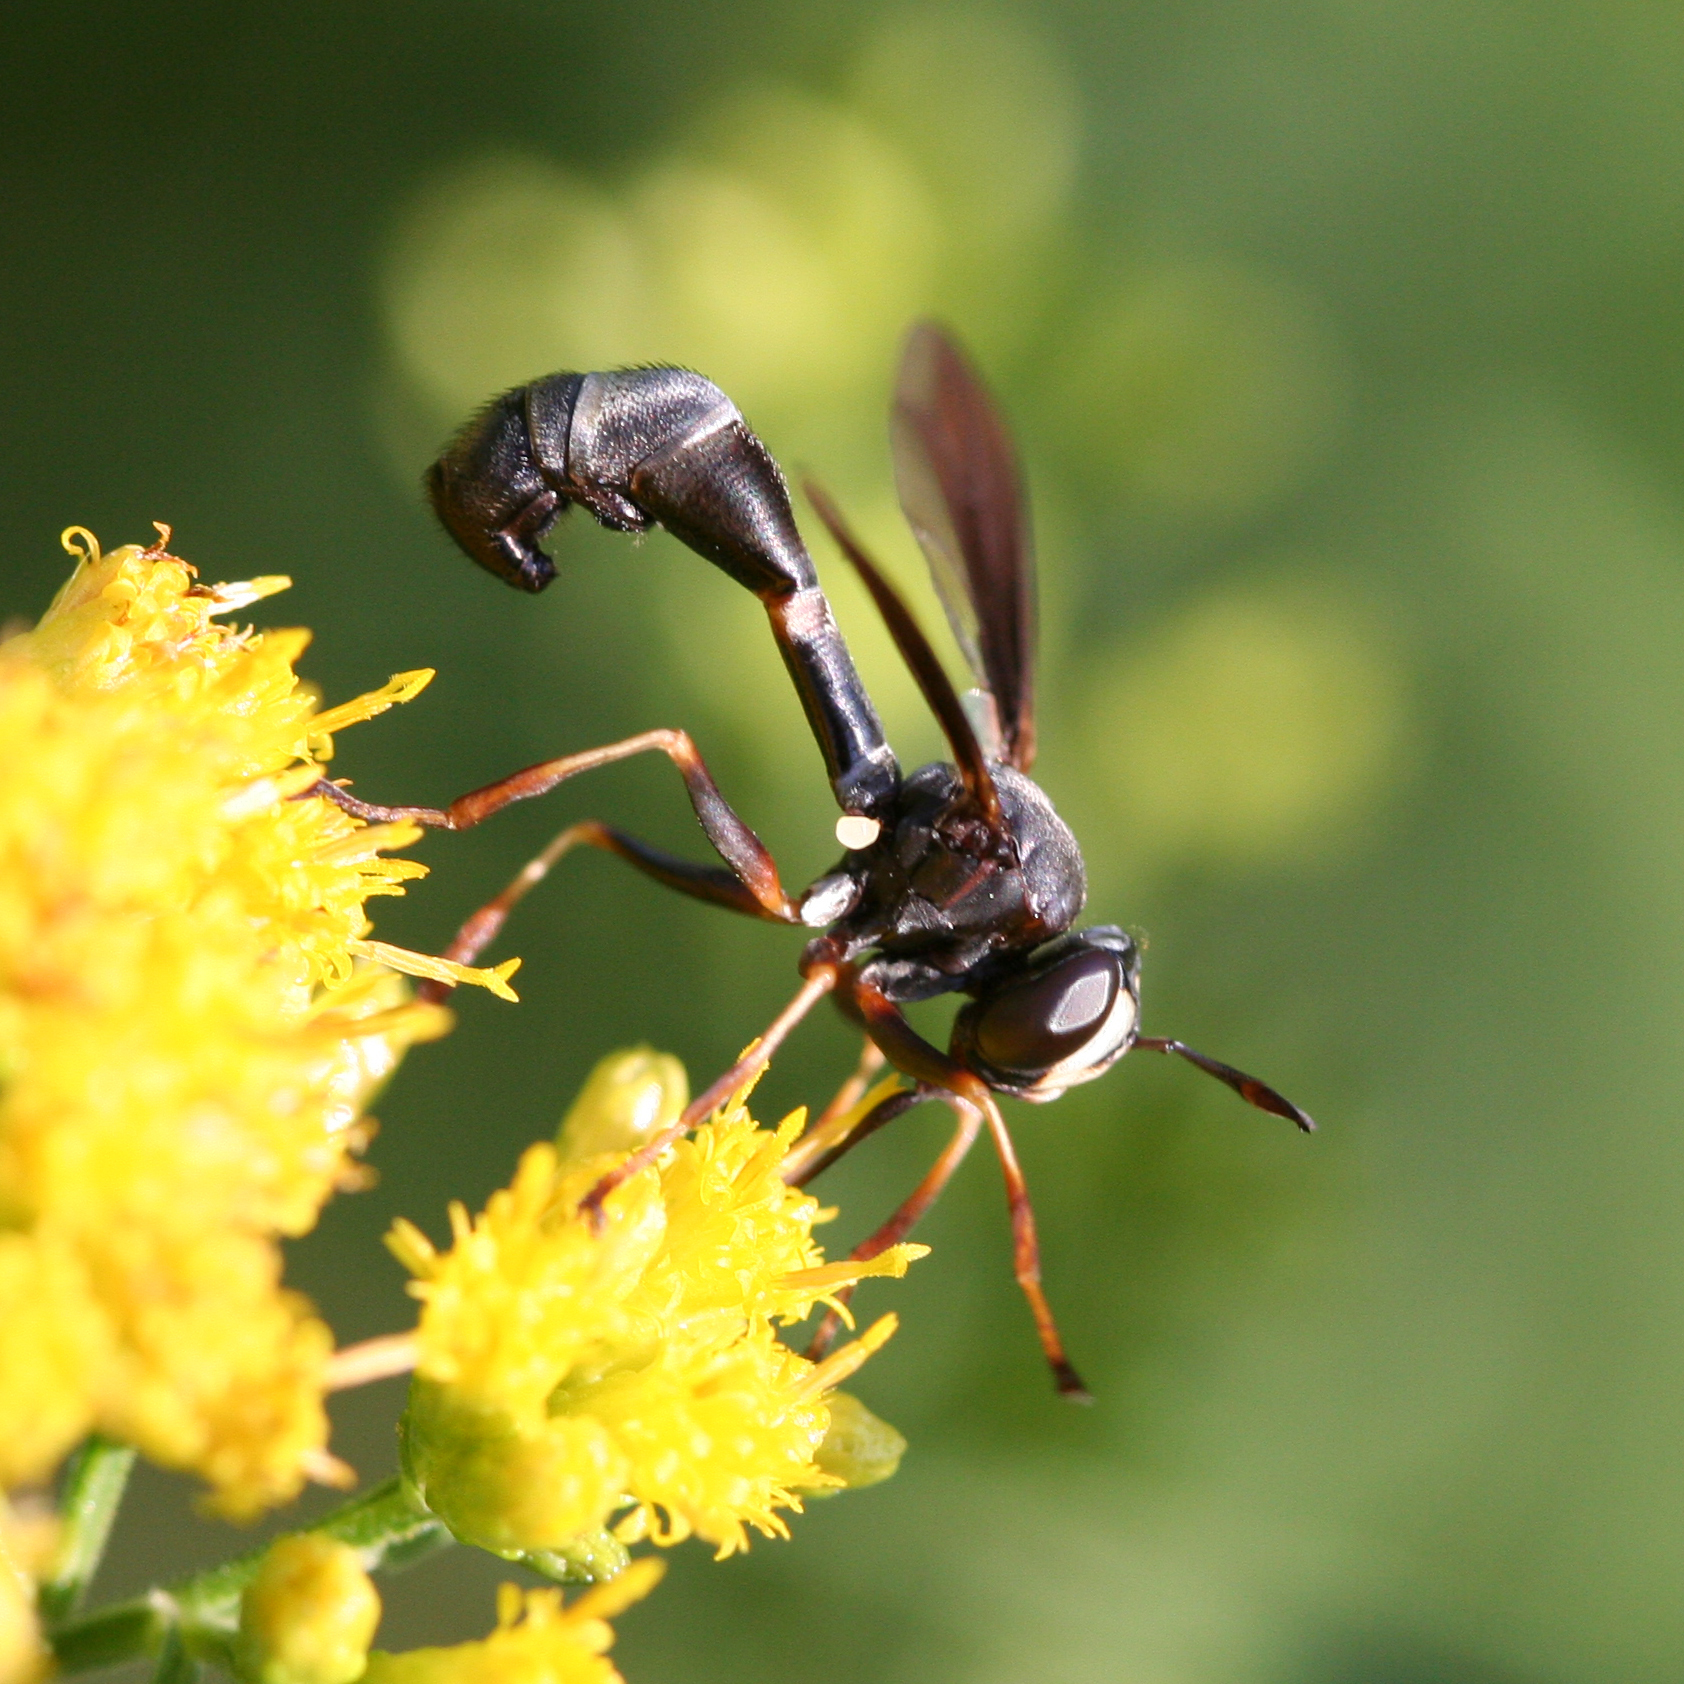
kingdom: Animalia
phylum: Arthropoda
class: Insecta
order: Diptera
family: Conopidae
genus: Physocephala
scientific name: Physocephala tibialis
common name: Common eastern physocephala
